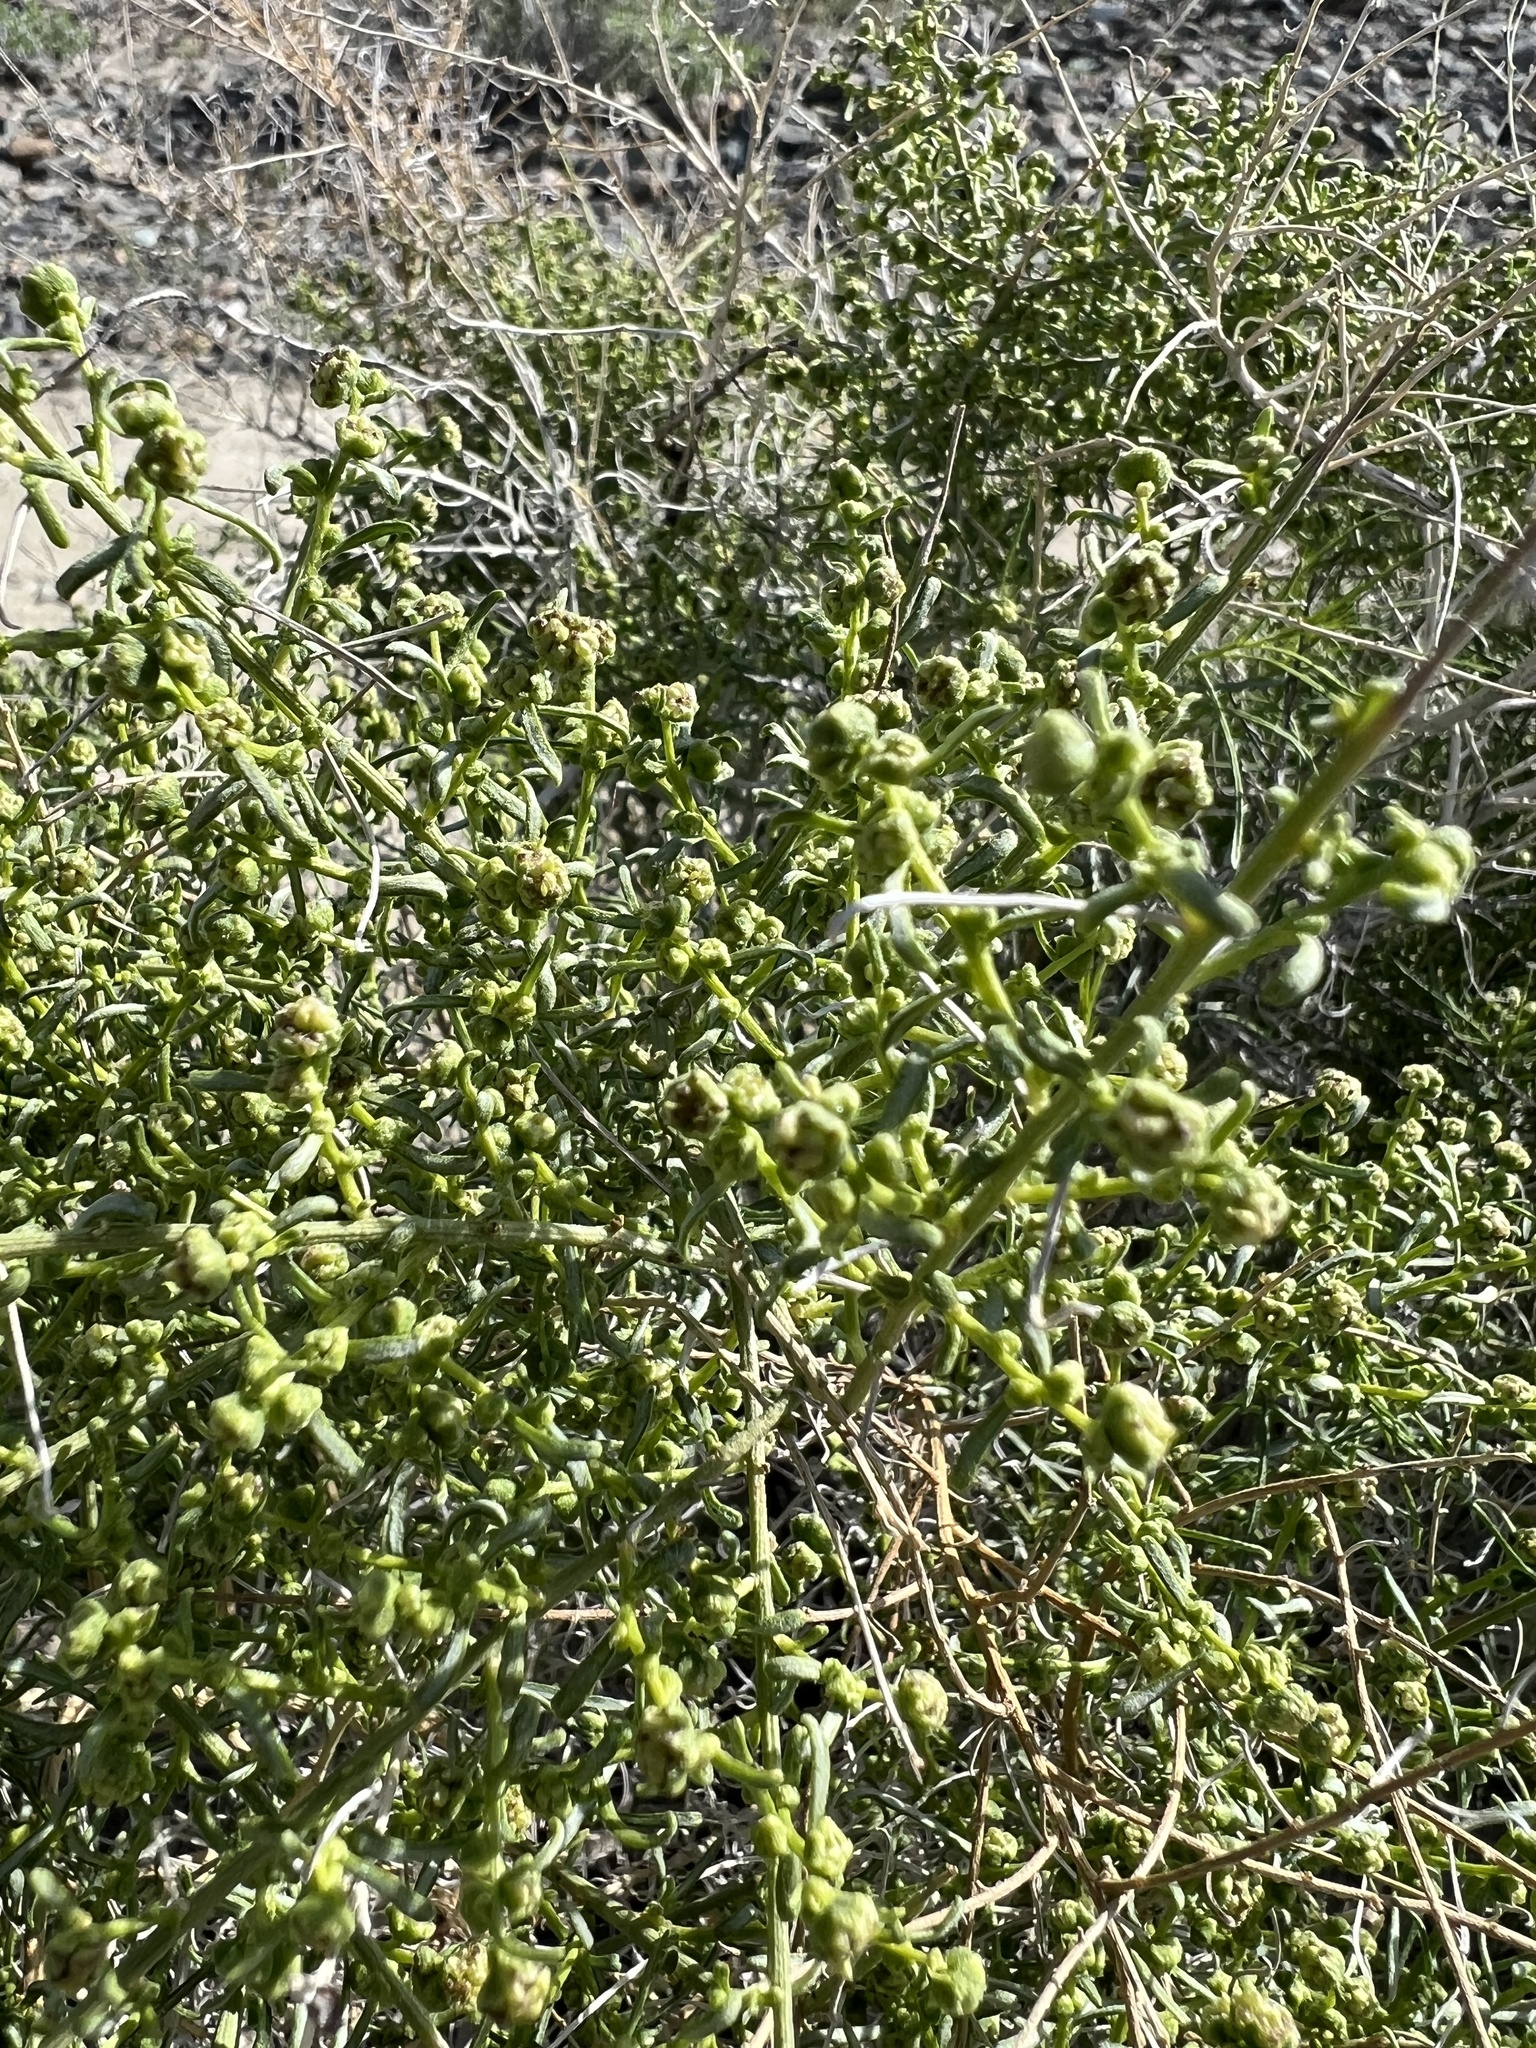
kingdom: Plantae
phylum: Tracheophyta
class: Magnoliopsida
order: Asterales
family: Asteraceae
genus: Ambrosia
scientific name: Ambrosia salsola
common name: Burrobrush
